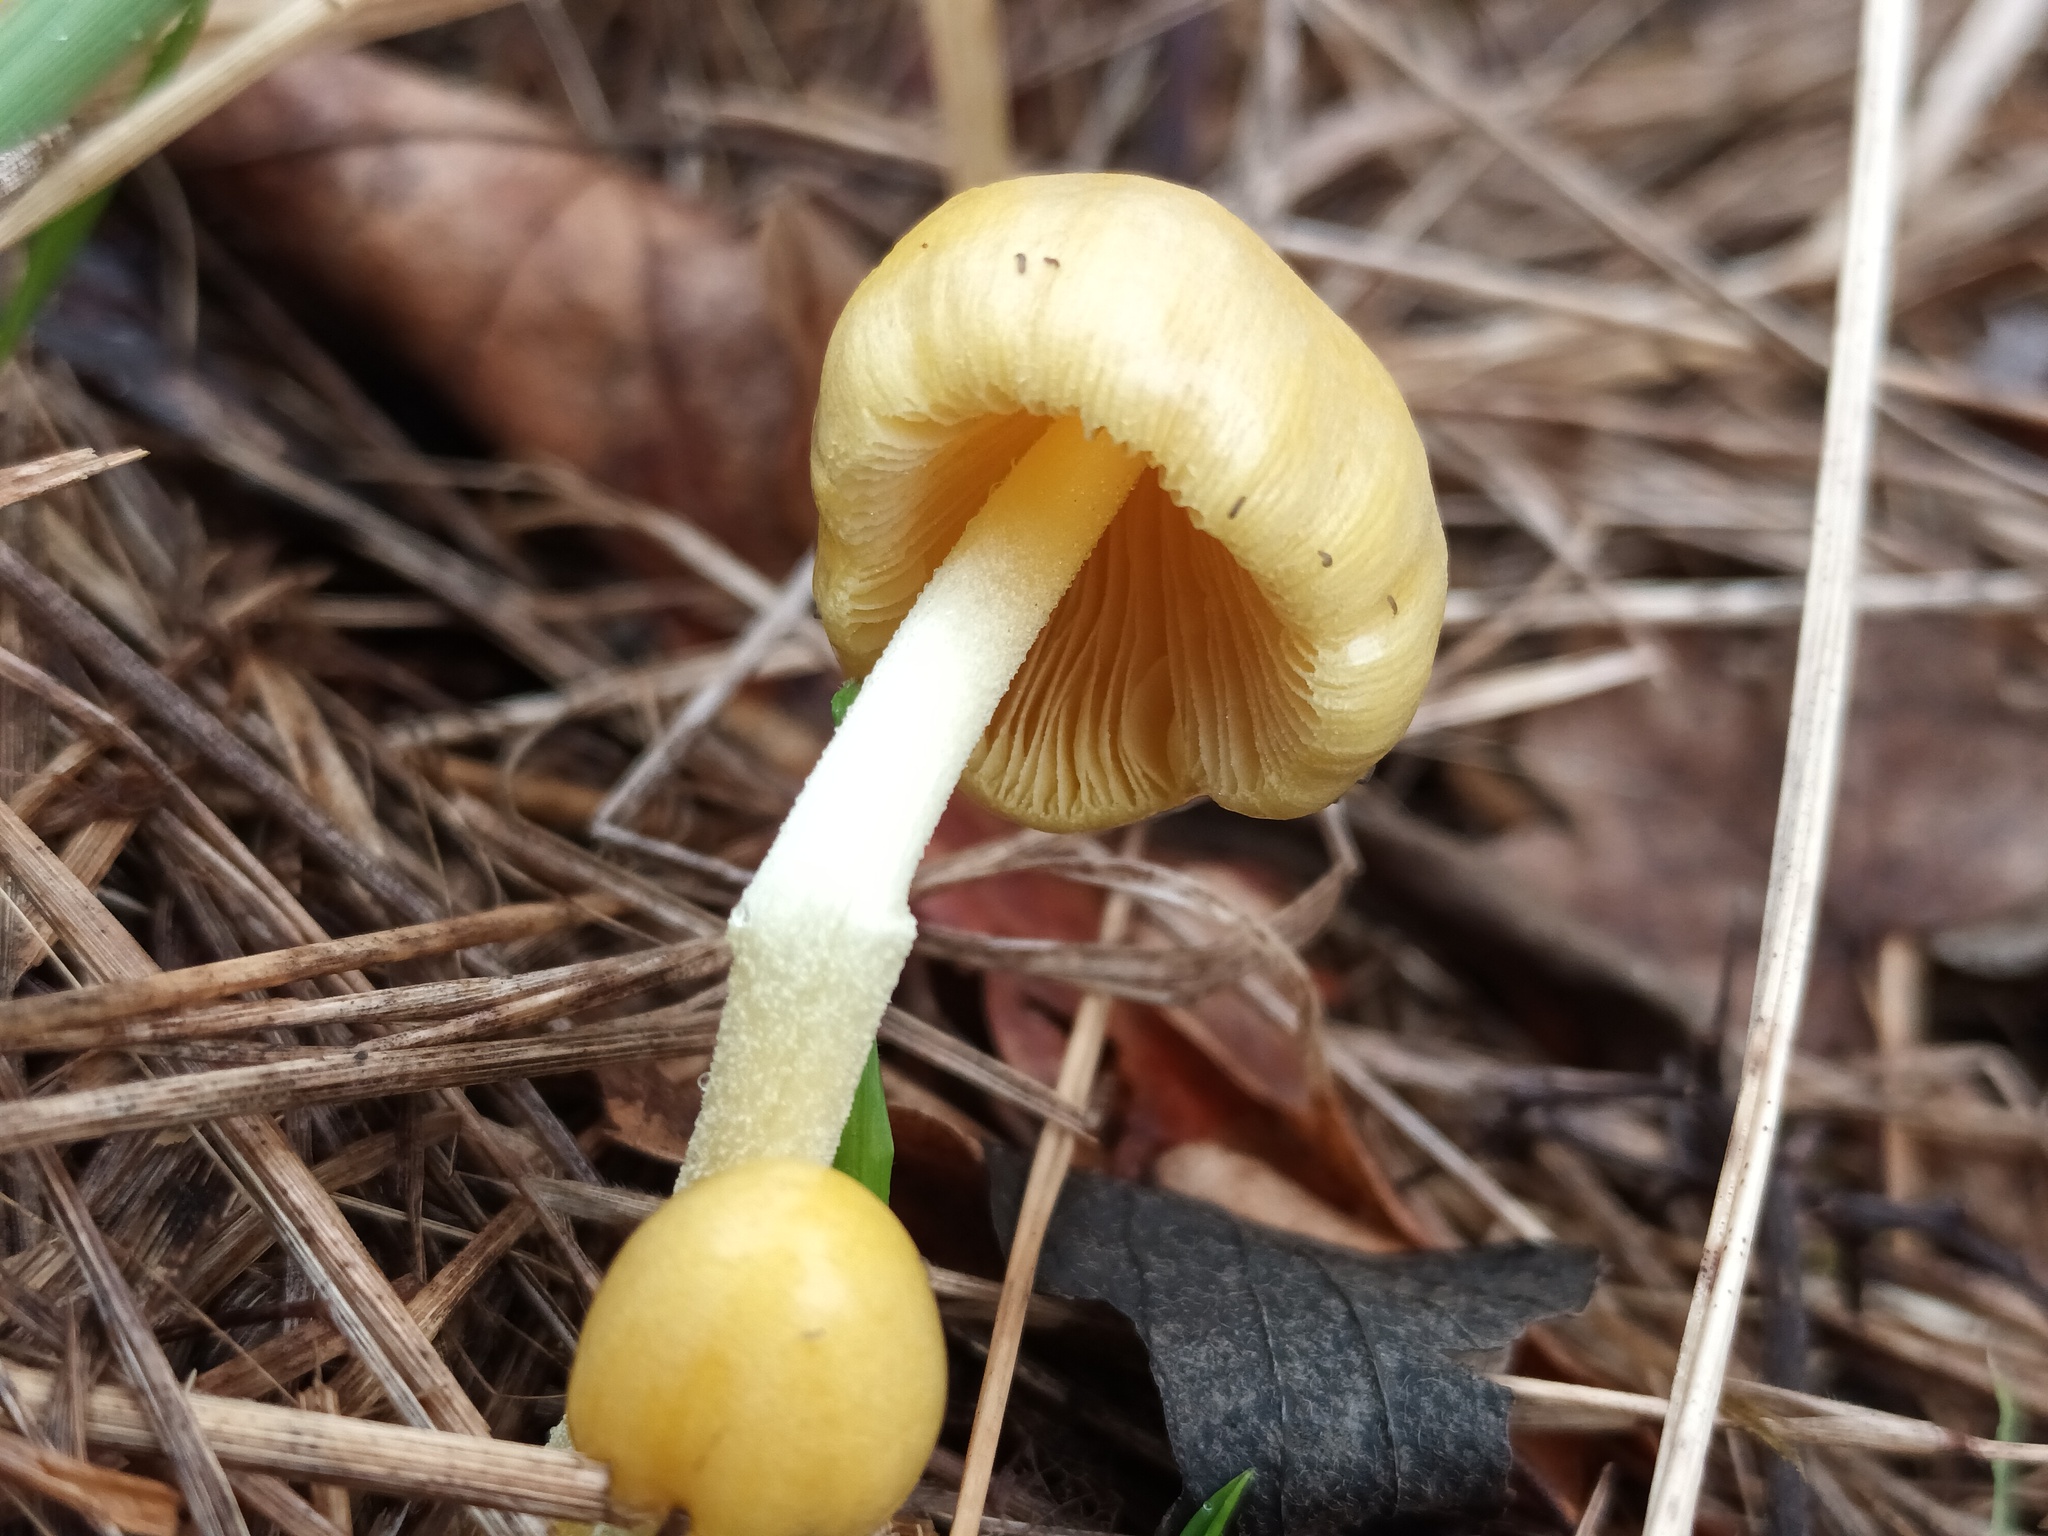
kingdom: Fungi
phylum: Basidiomycota
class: Agaricomycetes
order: Agaricales
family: Bolbitiaceae
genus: Bolbitius
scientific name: Bolbitius titubans
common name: Yellow fieldcap
